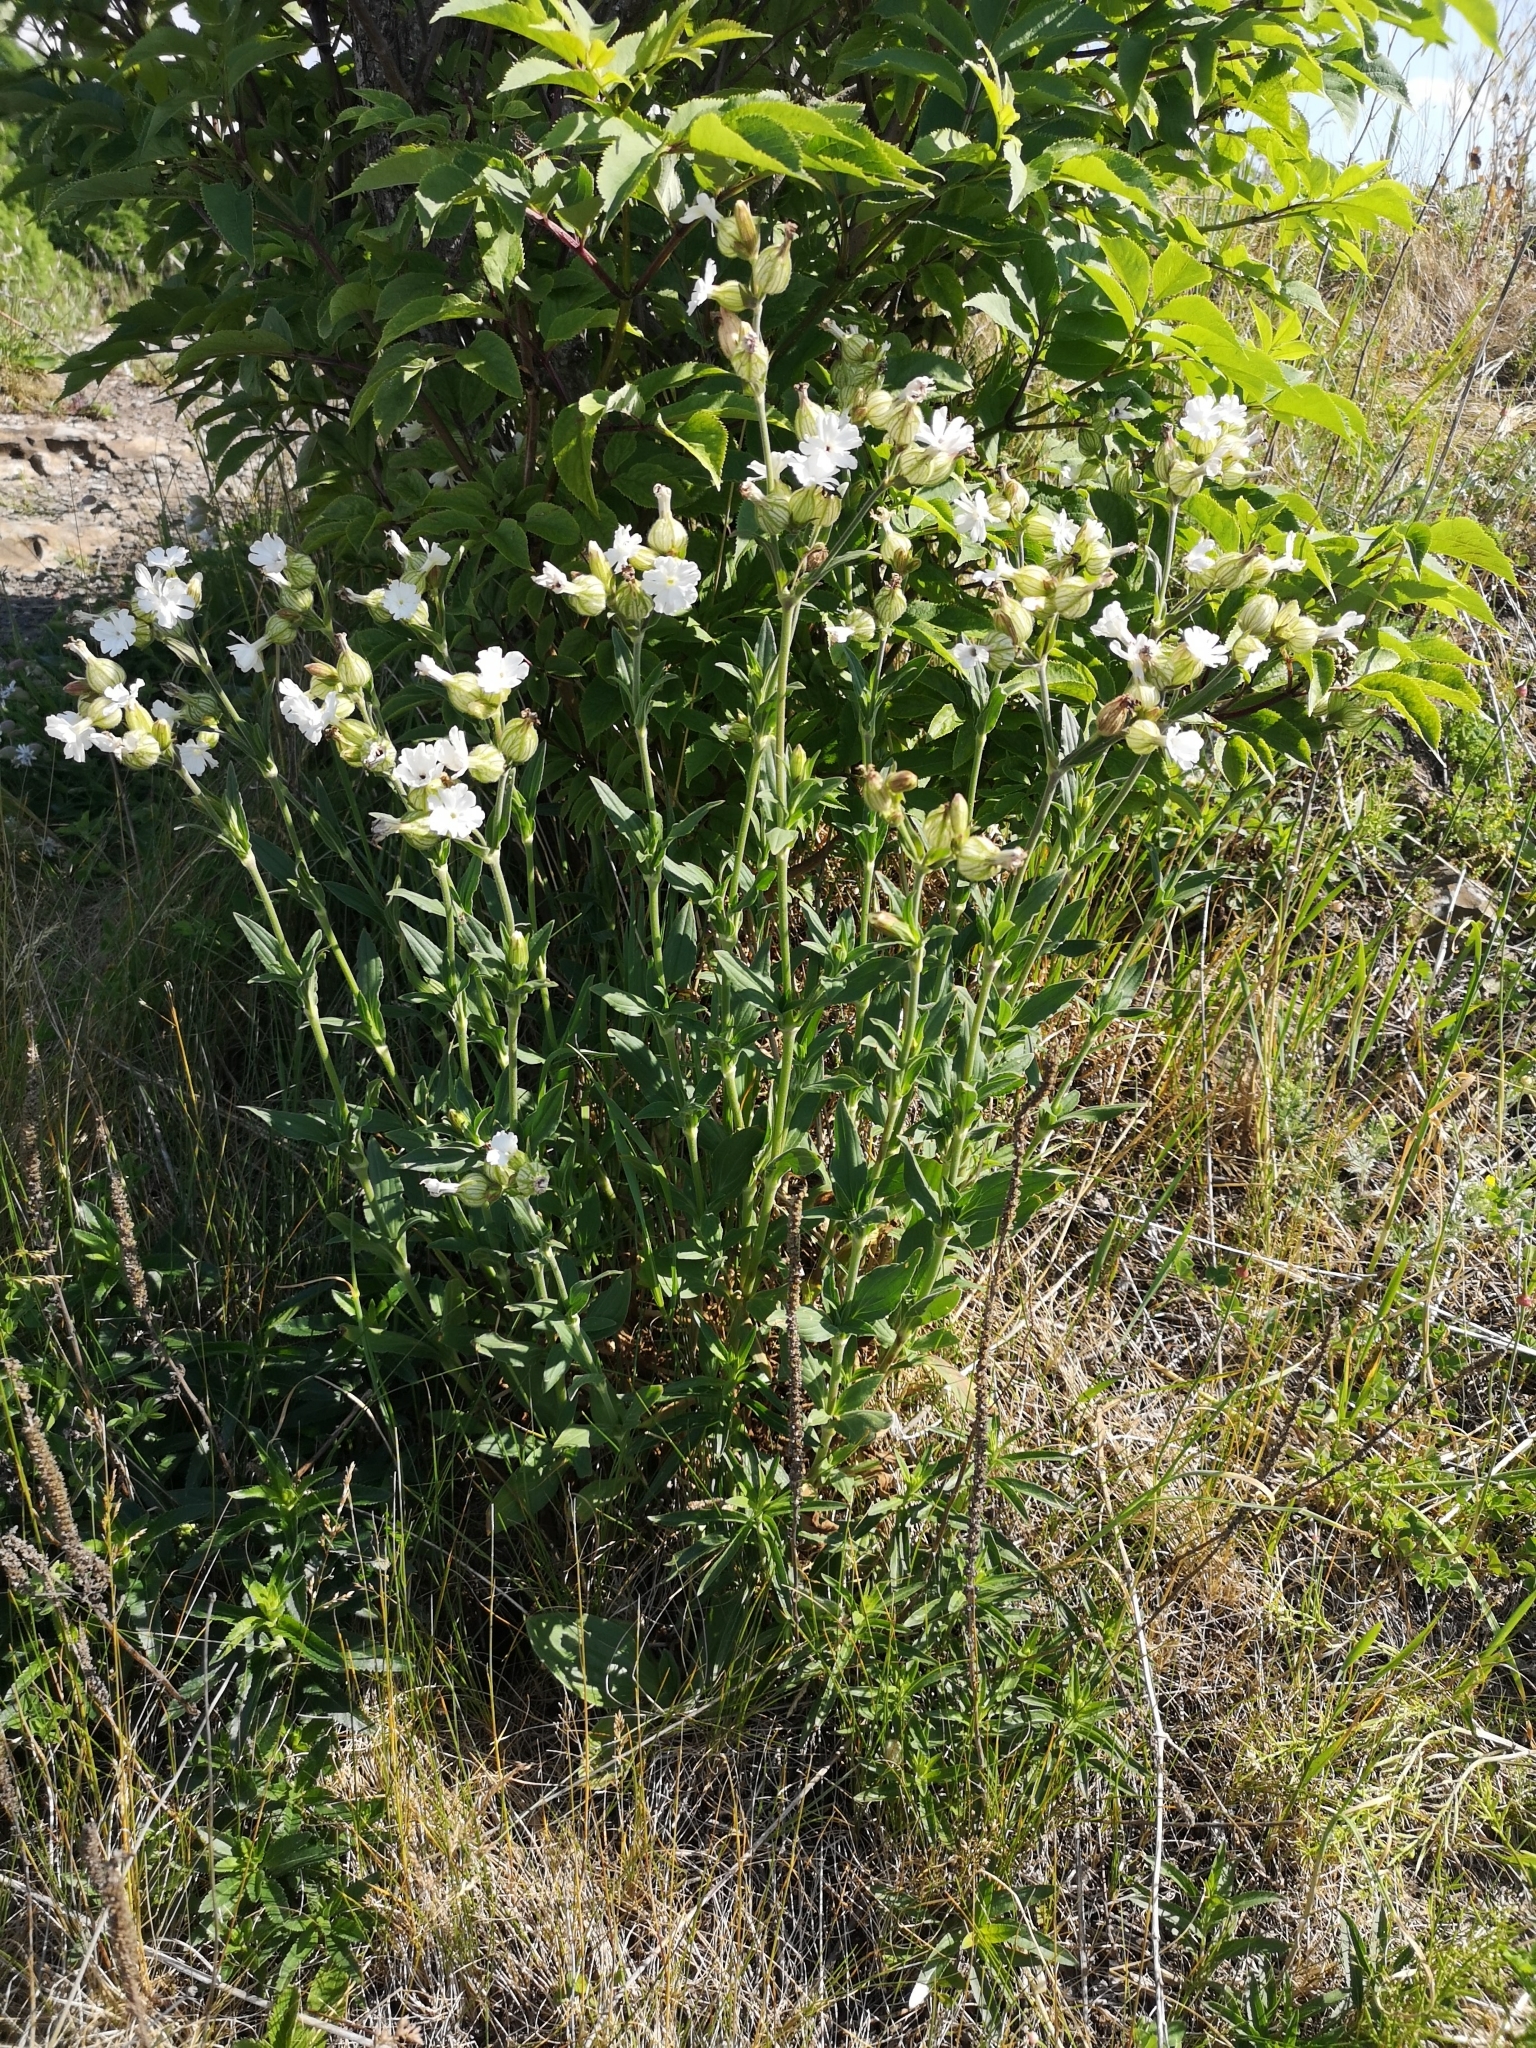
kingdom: Plantae
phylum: Tracheophyta
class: Magnoliopsida
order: Caryophyllales
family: Caryophyllaceae
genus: Silene
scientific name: Silene latifolia
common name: White campion
